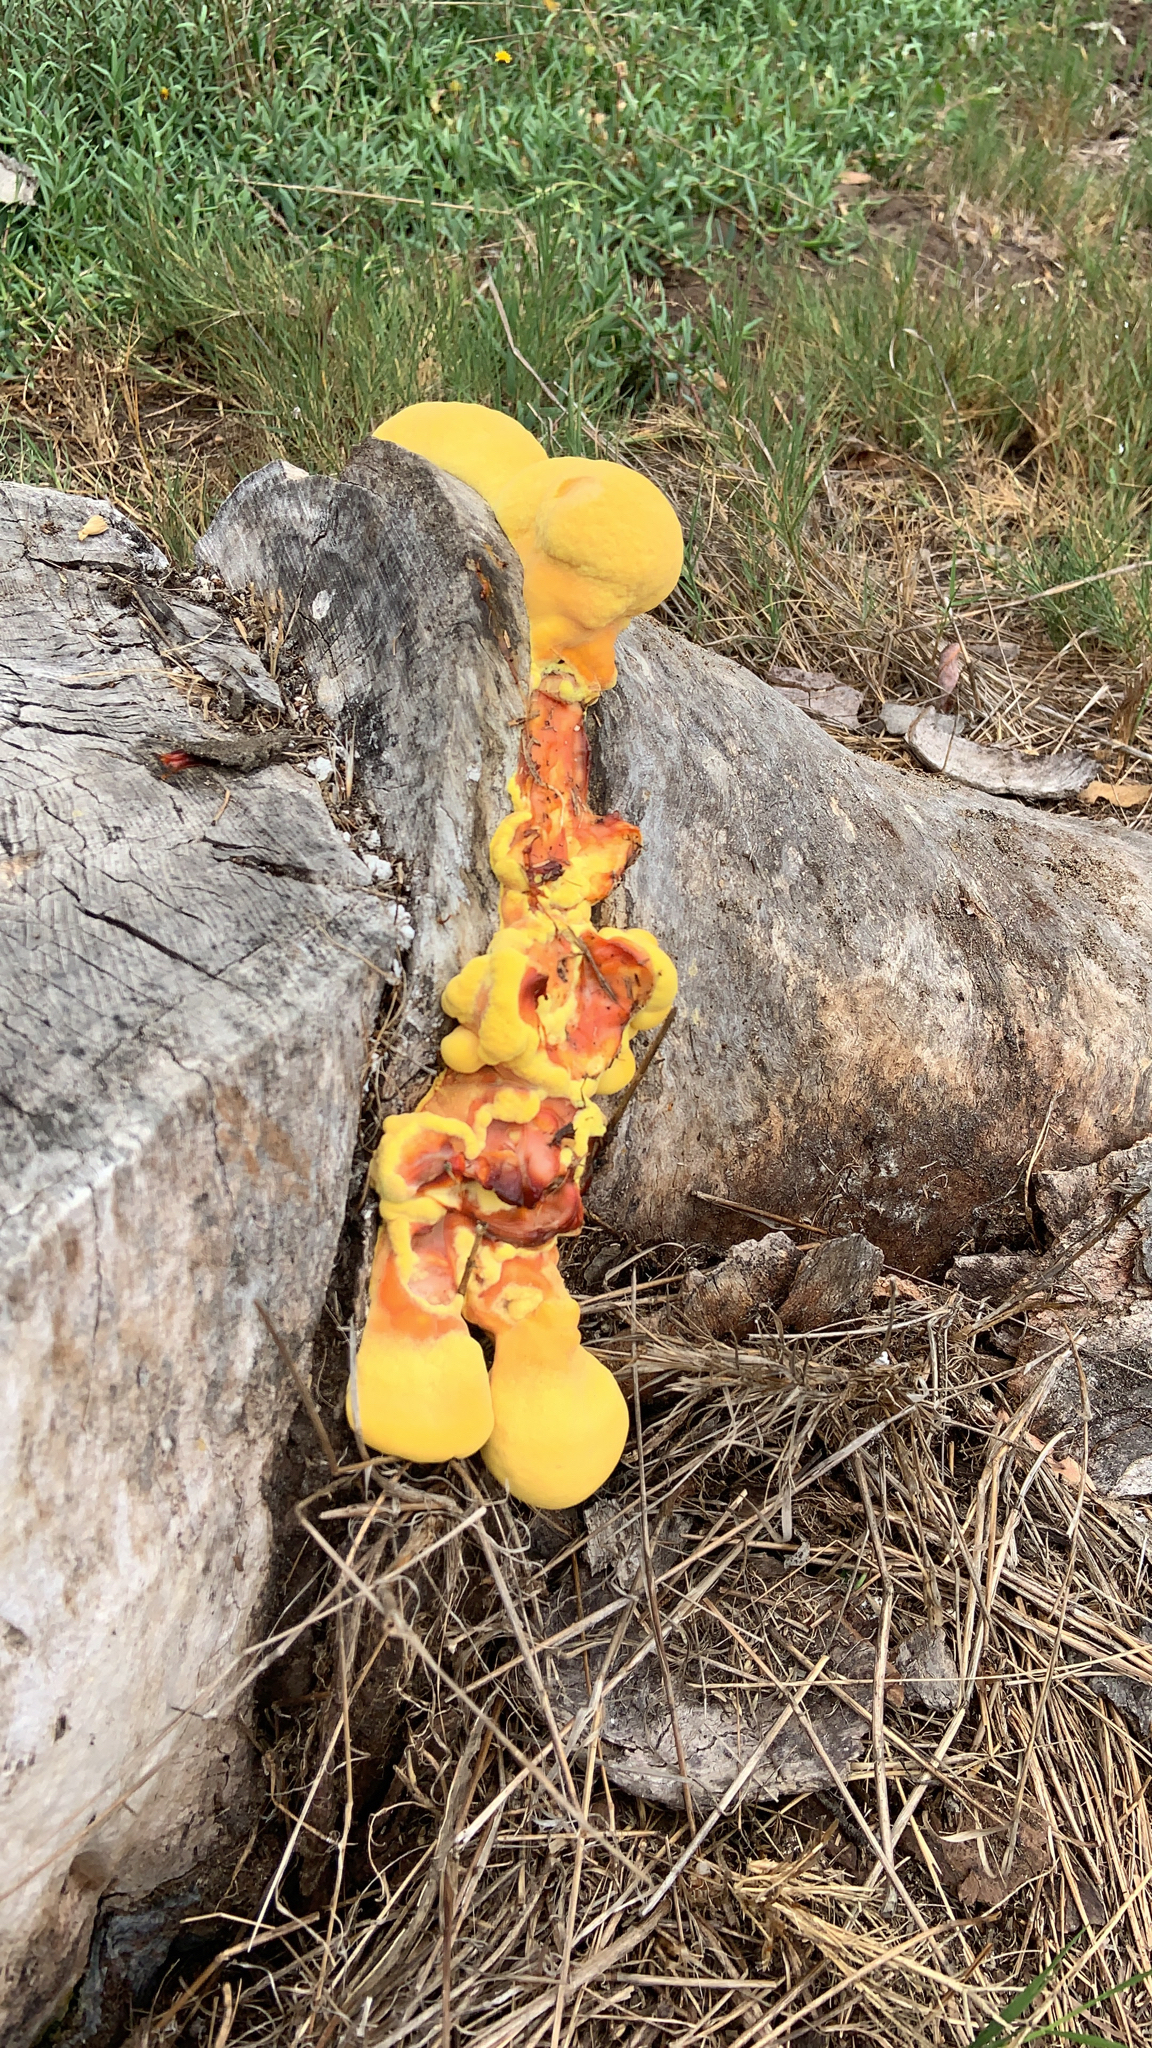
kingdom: Fungi
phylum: Basidiomycota
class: Agaricomycetes
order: Polyporales
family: Laetiporaceae
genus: Laetiporus
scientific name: Laetiporus gilbertsonii
